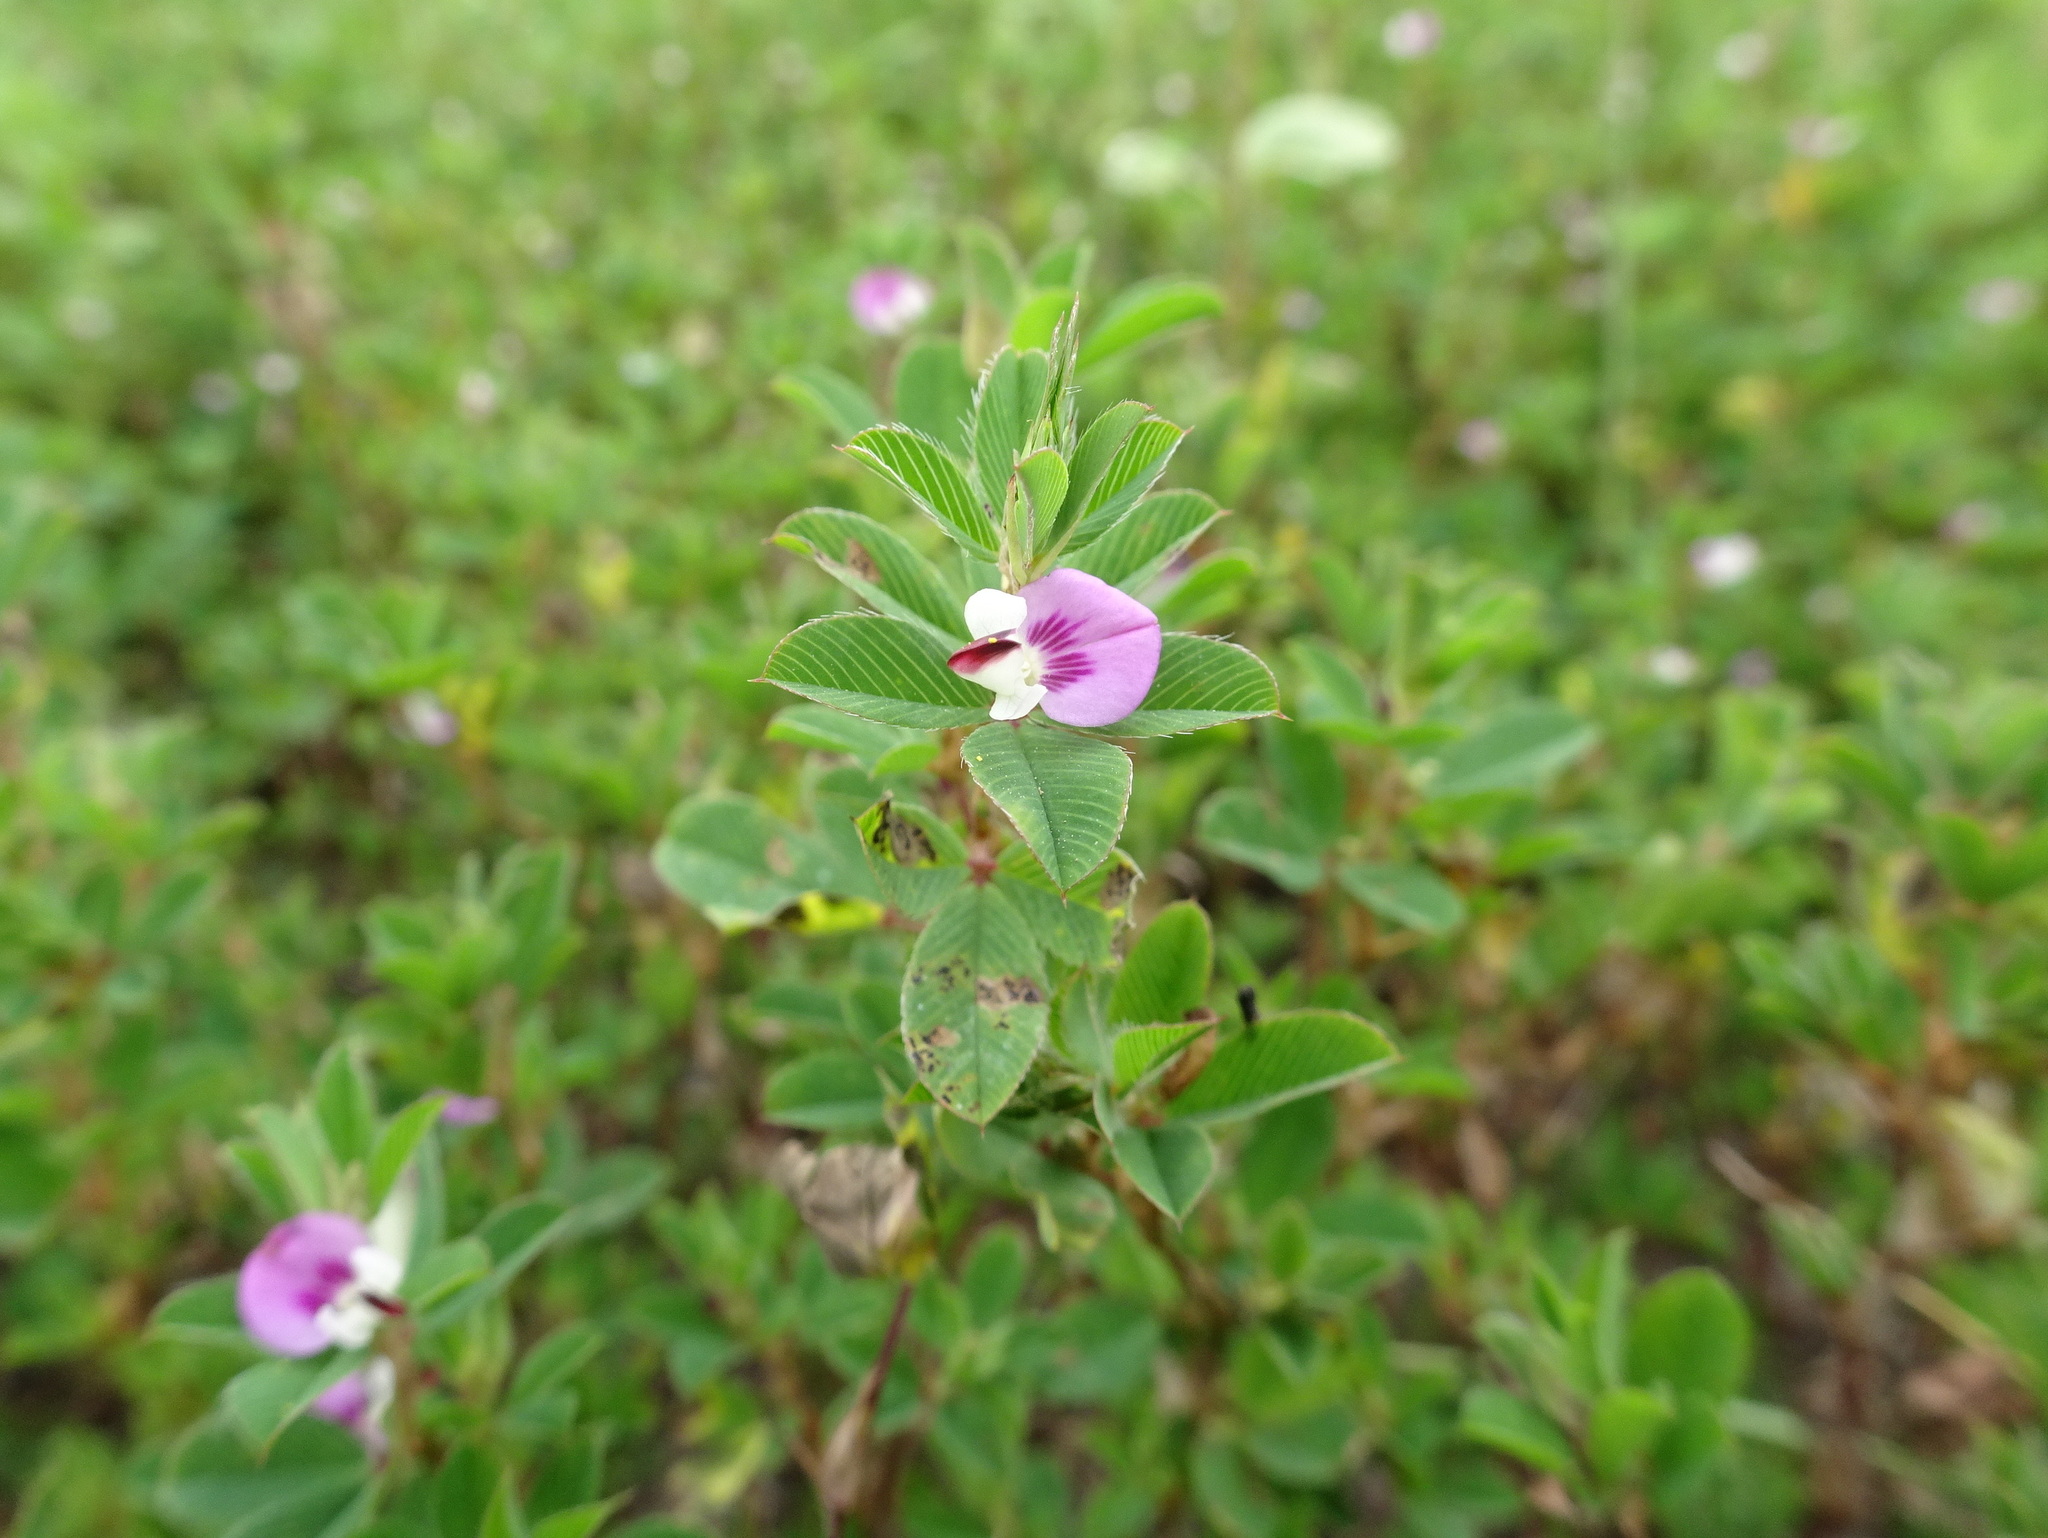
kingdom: Plantae
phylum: Tracheophyta
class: Magnoliopsida
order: Fabales
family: Fabaceae
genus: Kummerowia
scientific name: Kummerowia stipulacea
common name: Korean clover
